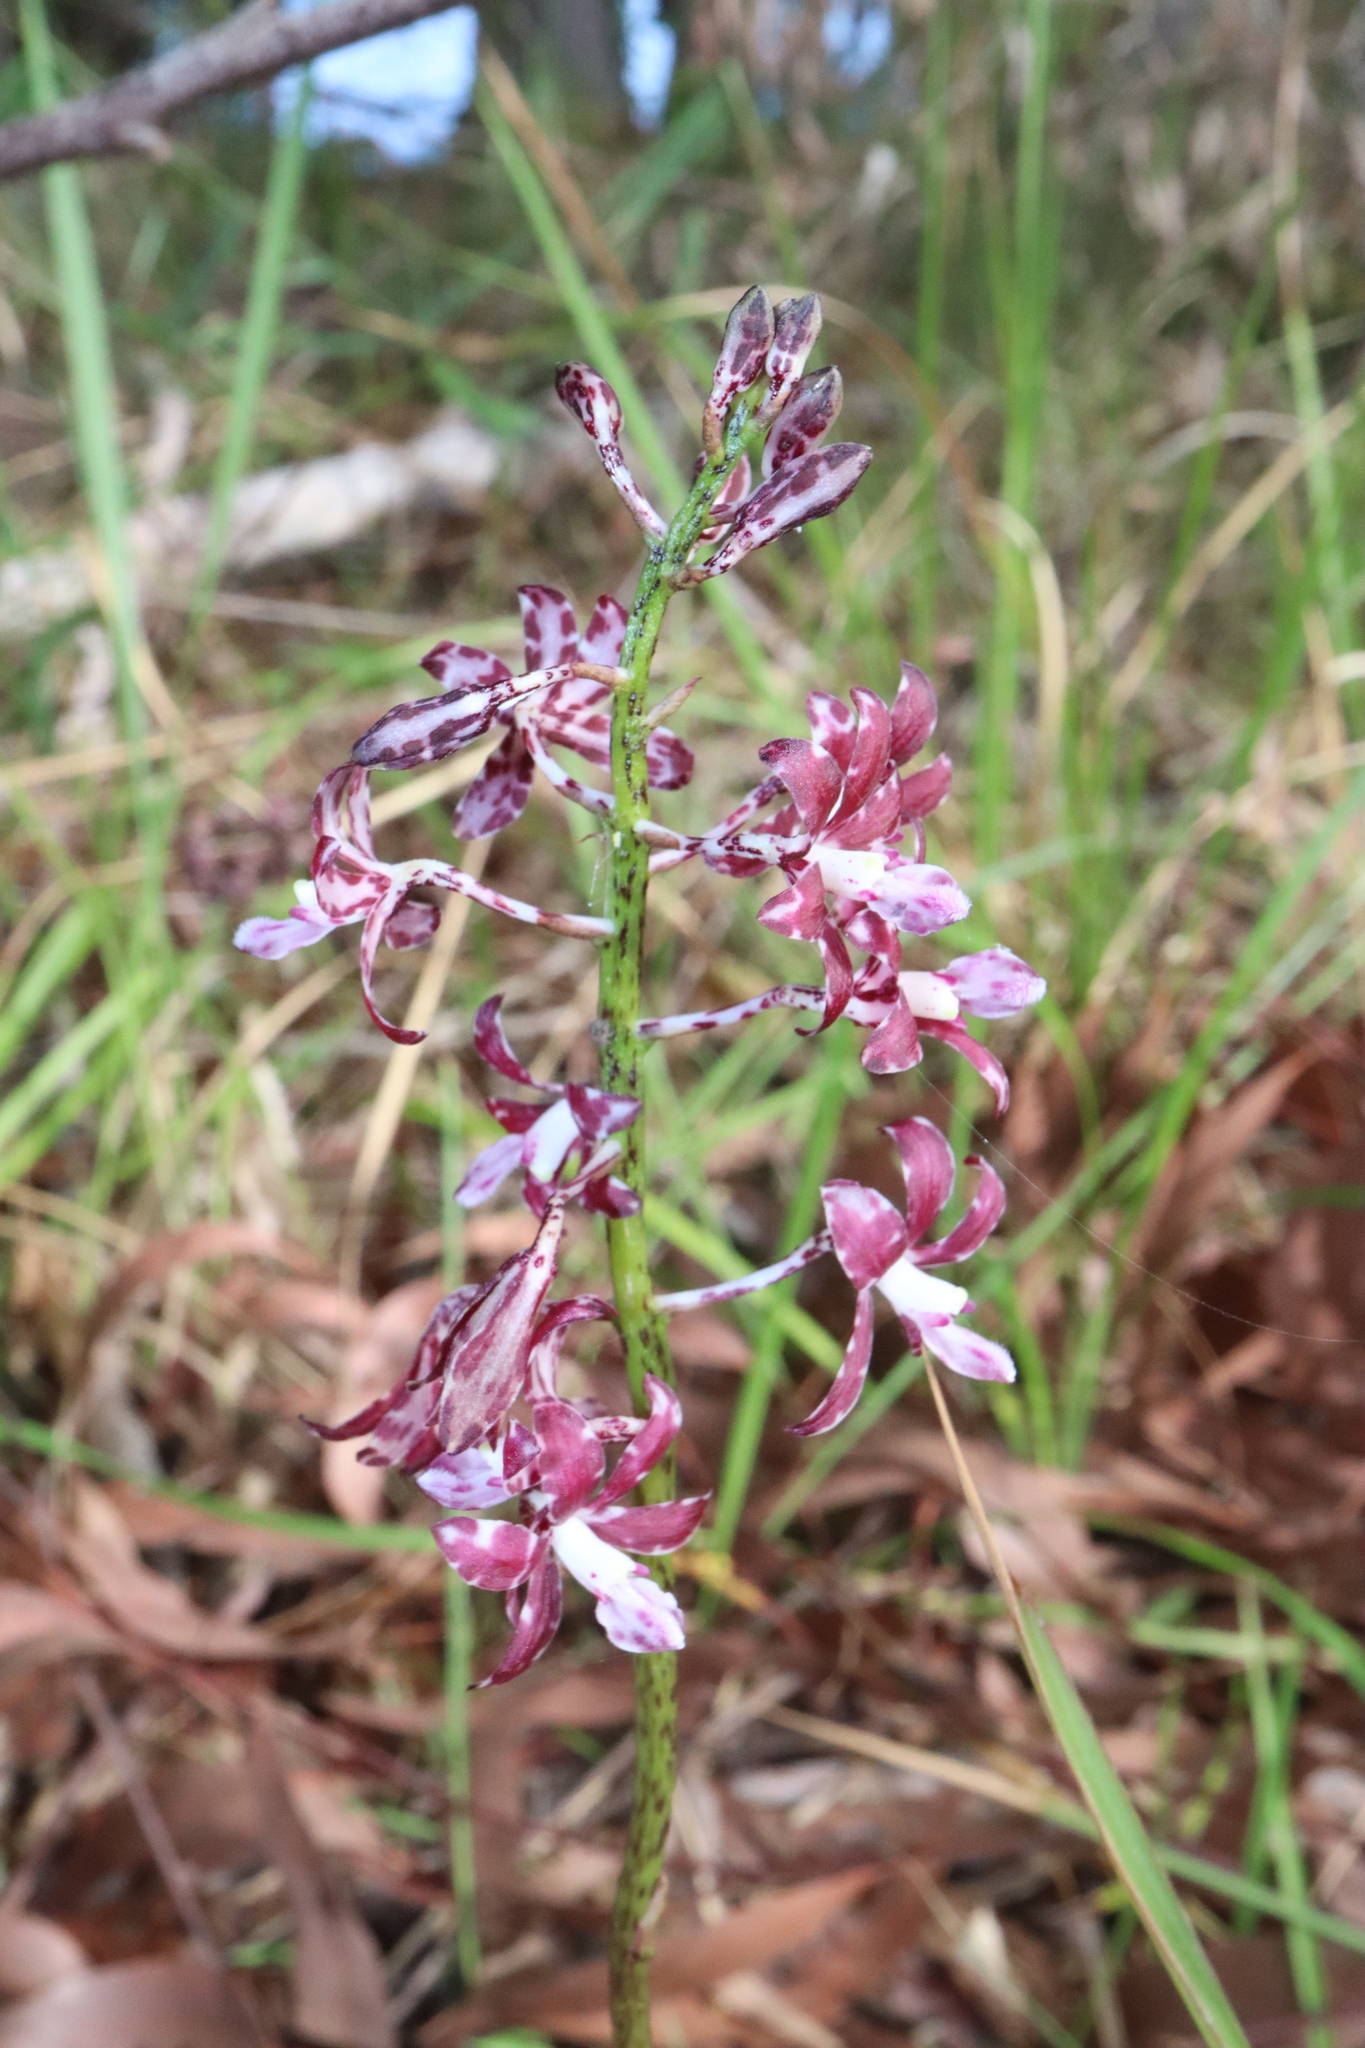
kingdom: Plantae
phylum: Tracheophyta
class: Liliopsida
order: Asparagales
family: Orchidaceae
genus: Dipodium
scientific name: Dipodium variegatum
